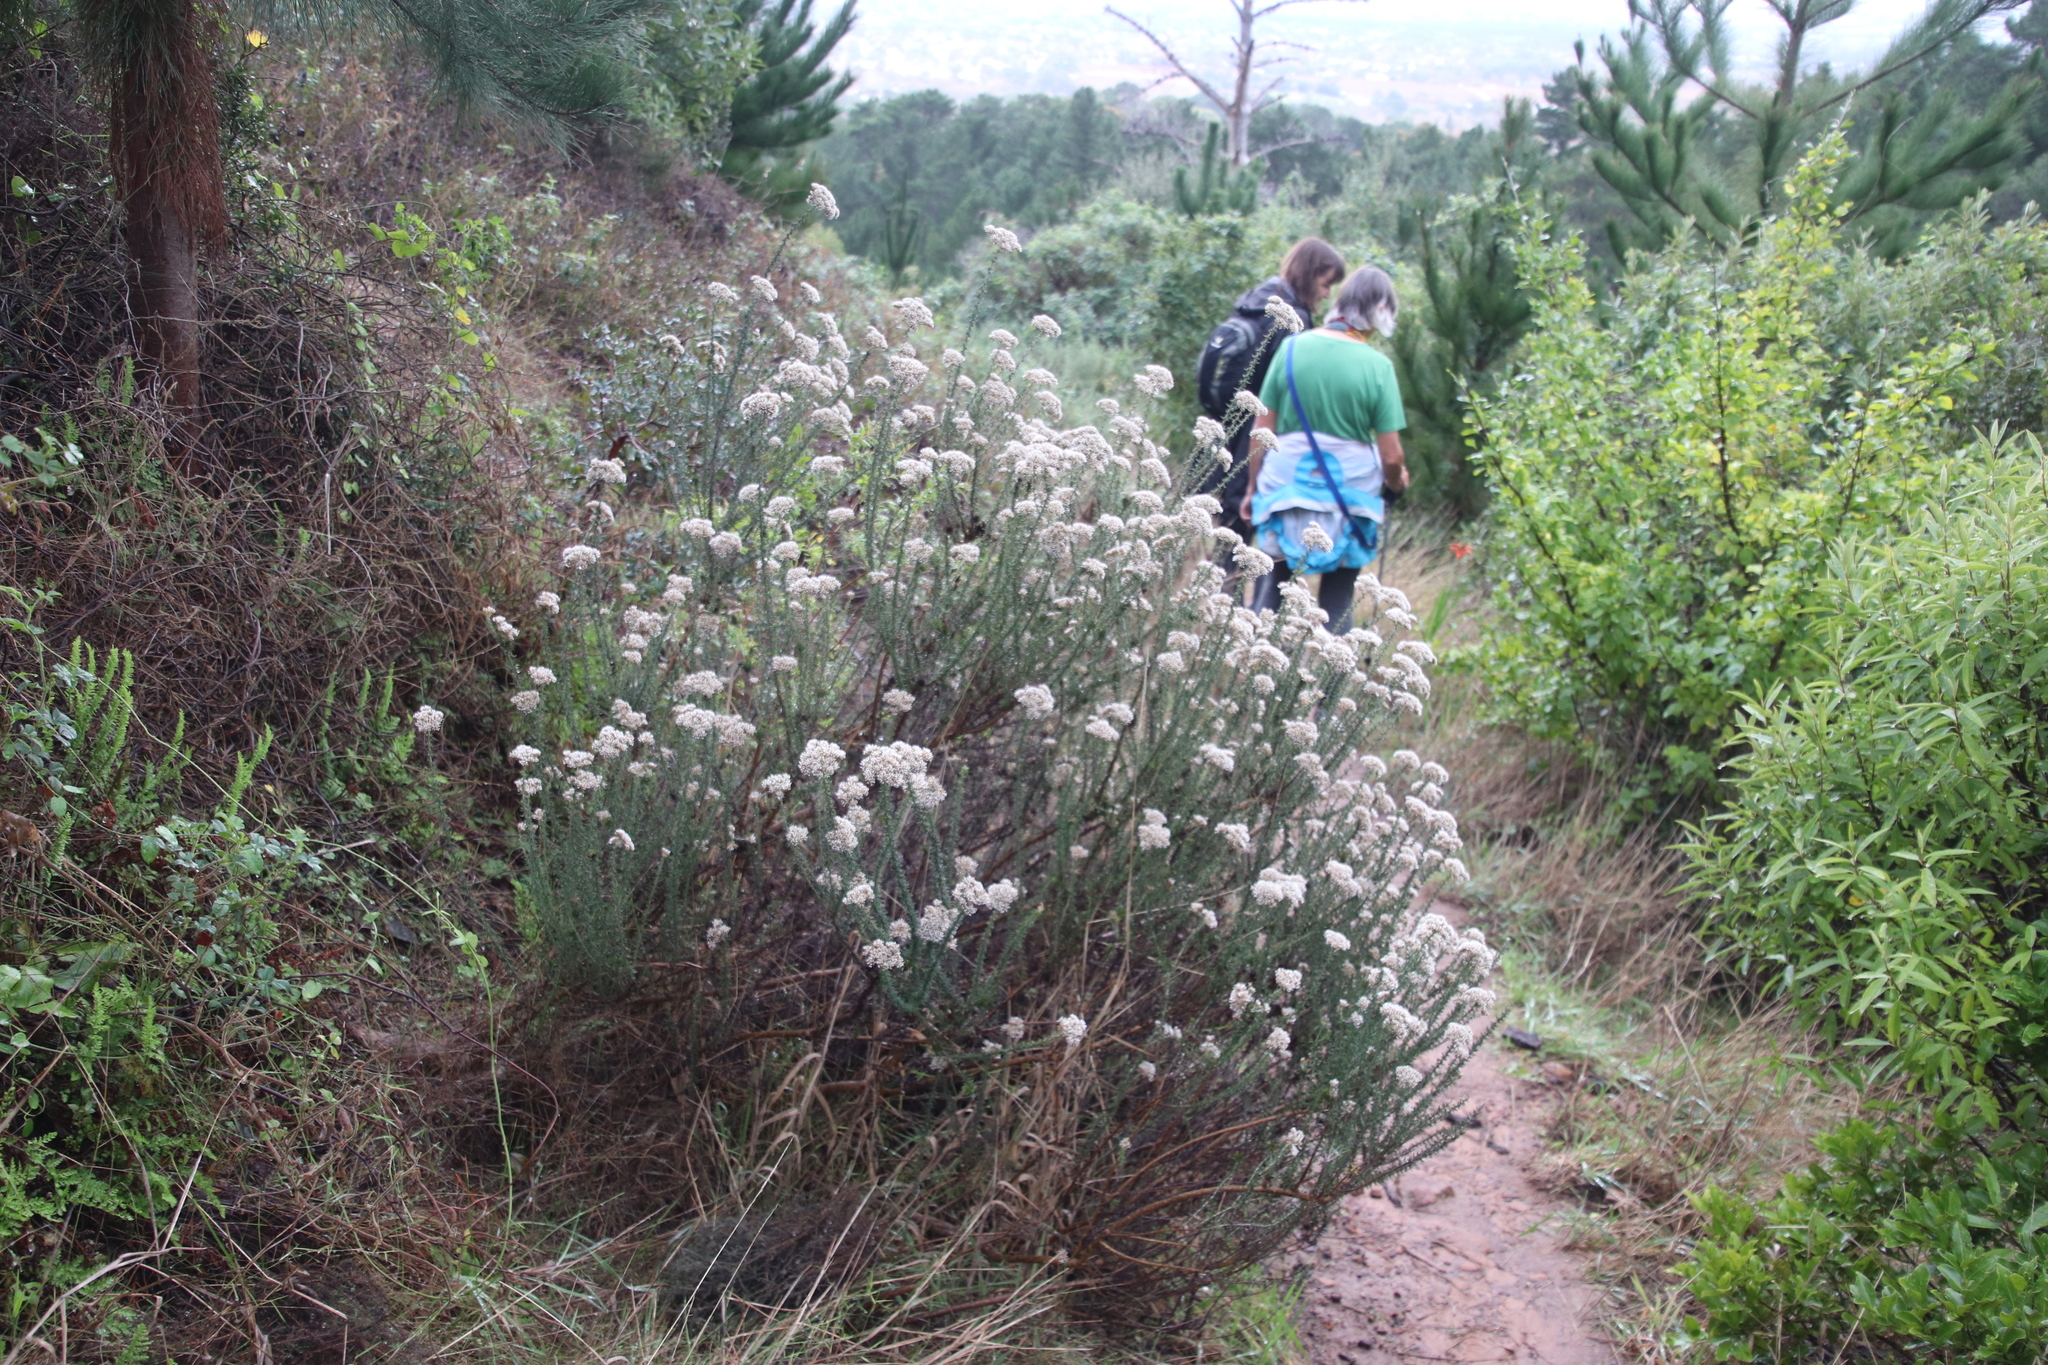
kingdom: Plantae
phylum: Tracheophyta
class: Magnoliopsida
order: Asterales
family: Asteraceae
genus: Metalasia
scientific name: Metalasia densa
